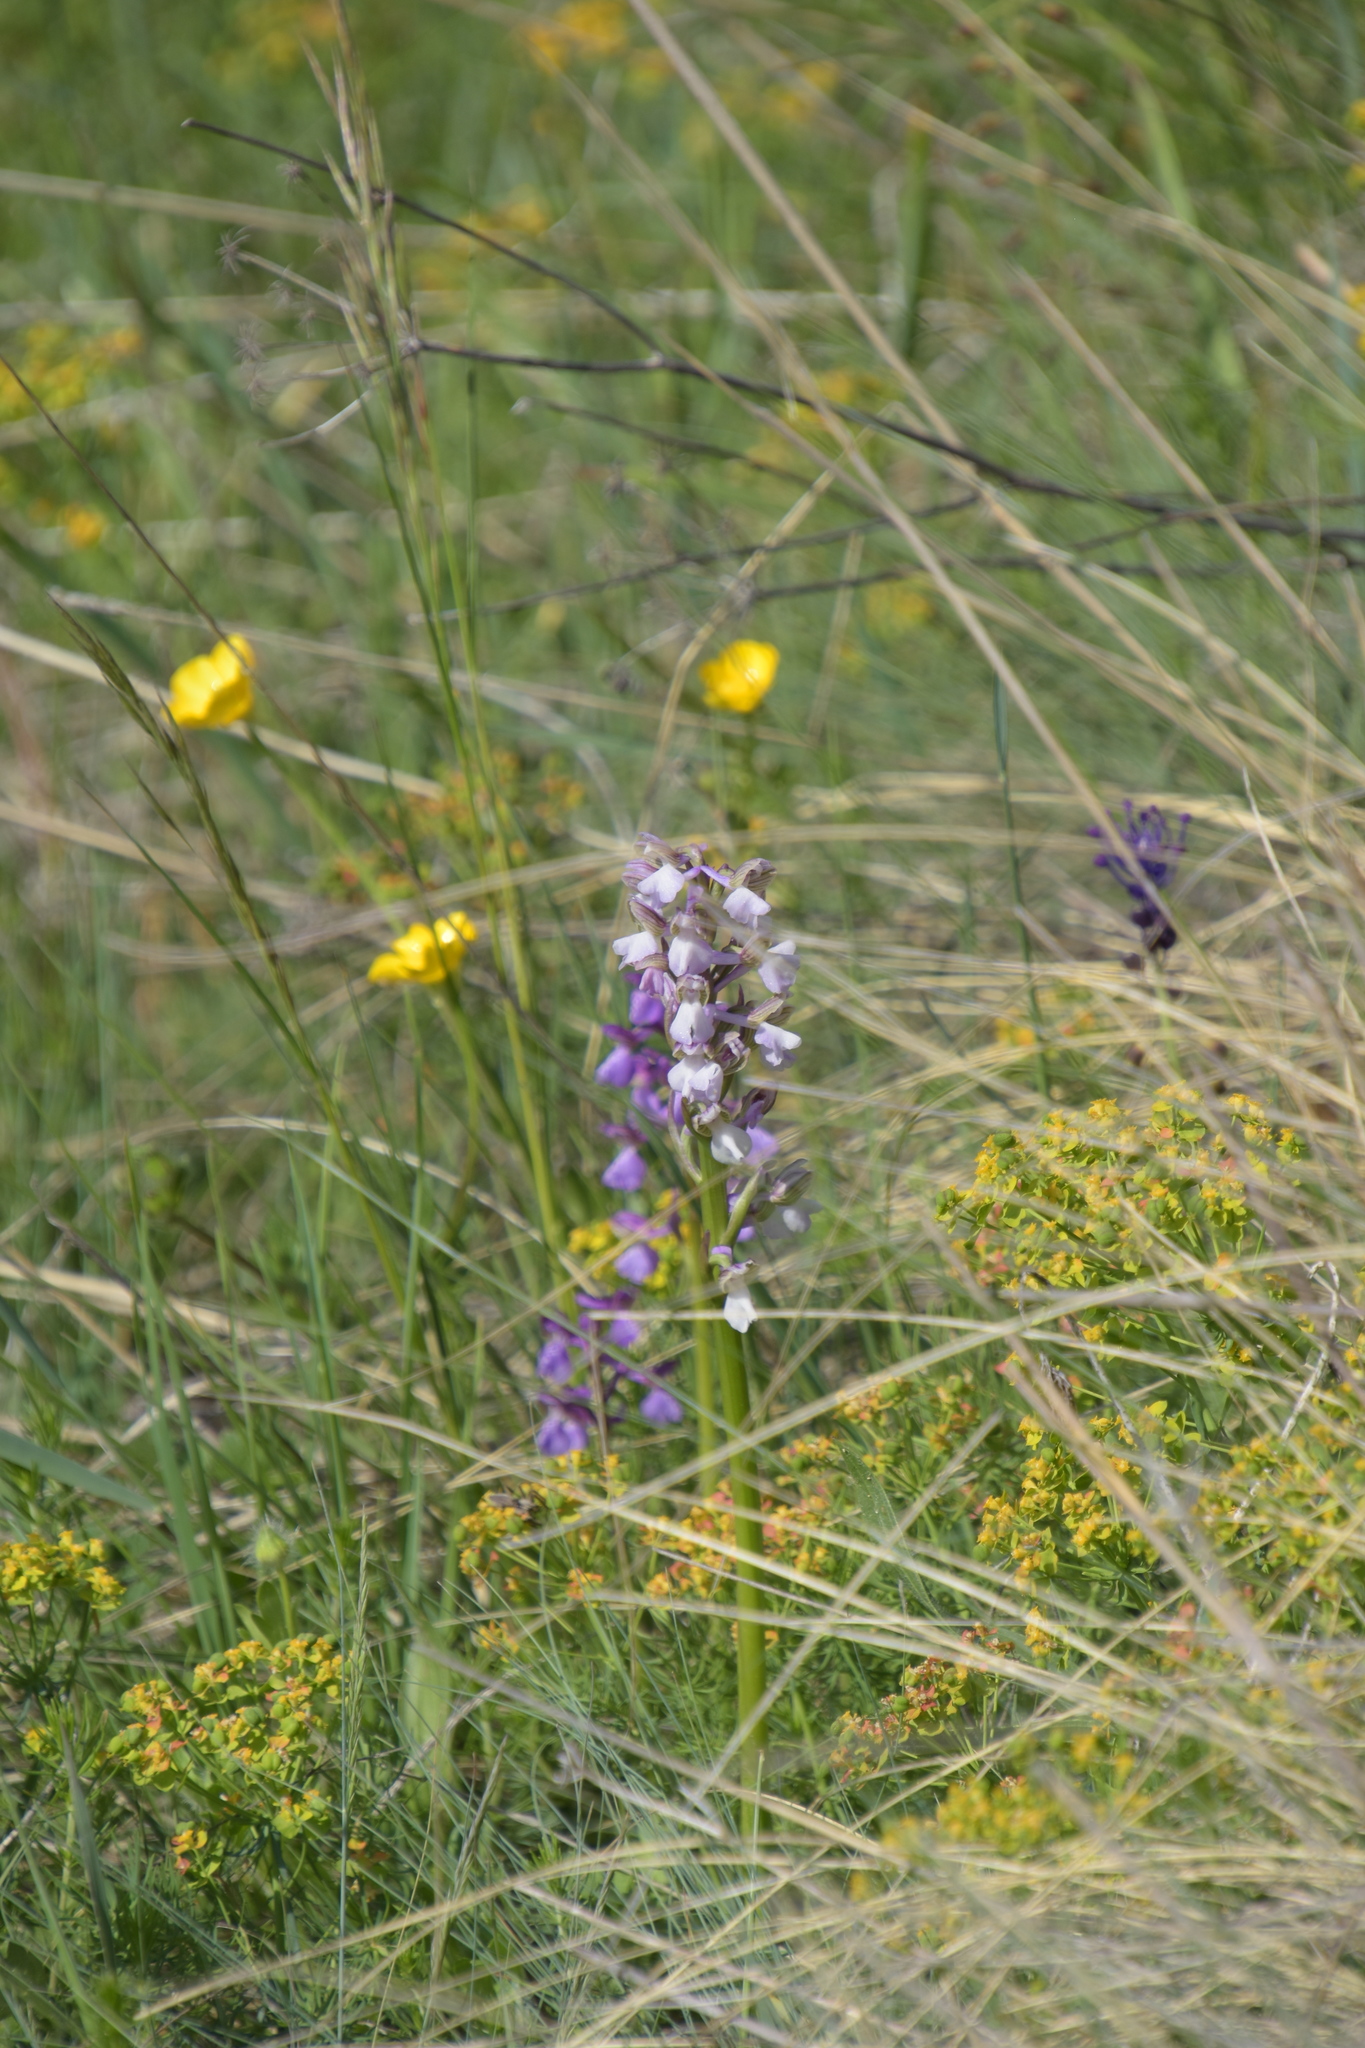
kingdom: Plantae
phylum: Tracheophyta
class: Liliopsida
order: Asparagales
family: Orchidaceae
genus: Anacamptis
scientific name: Anacamptis morio
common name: Green-winged orchid
